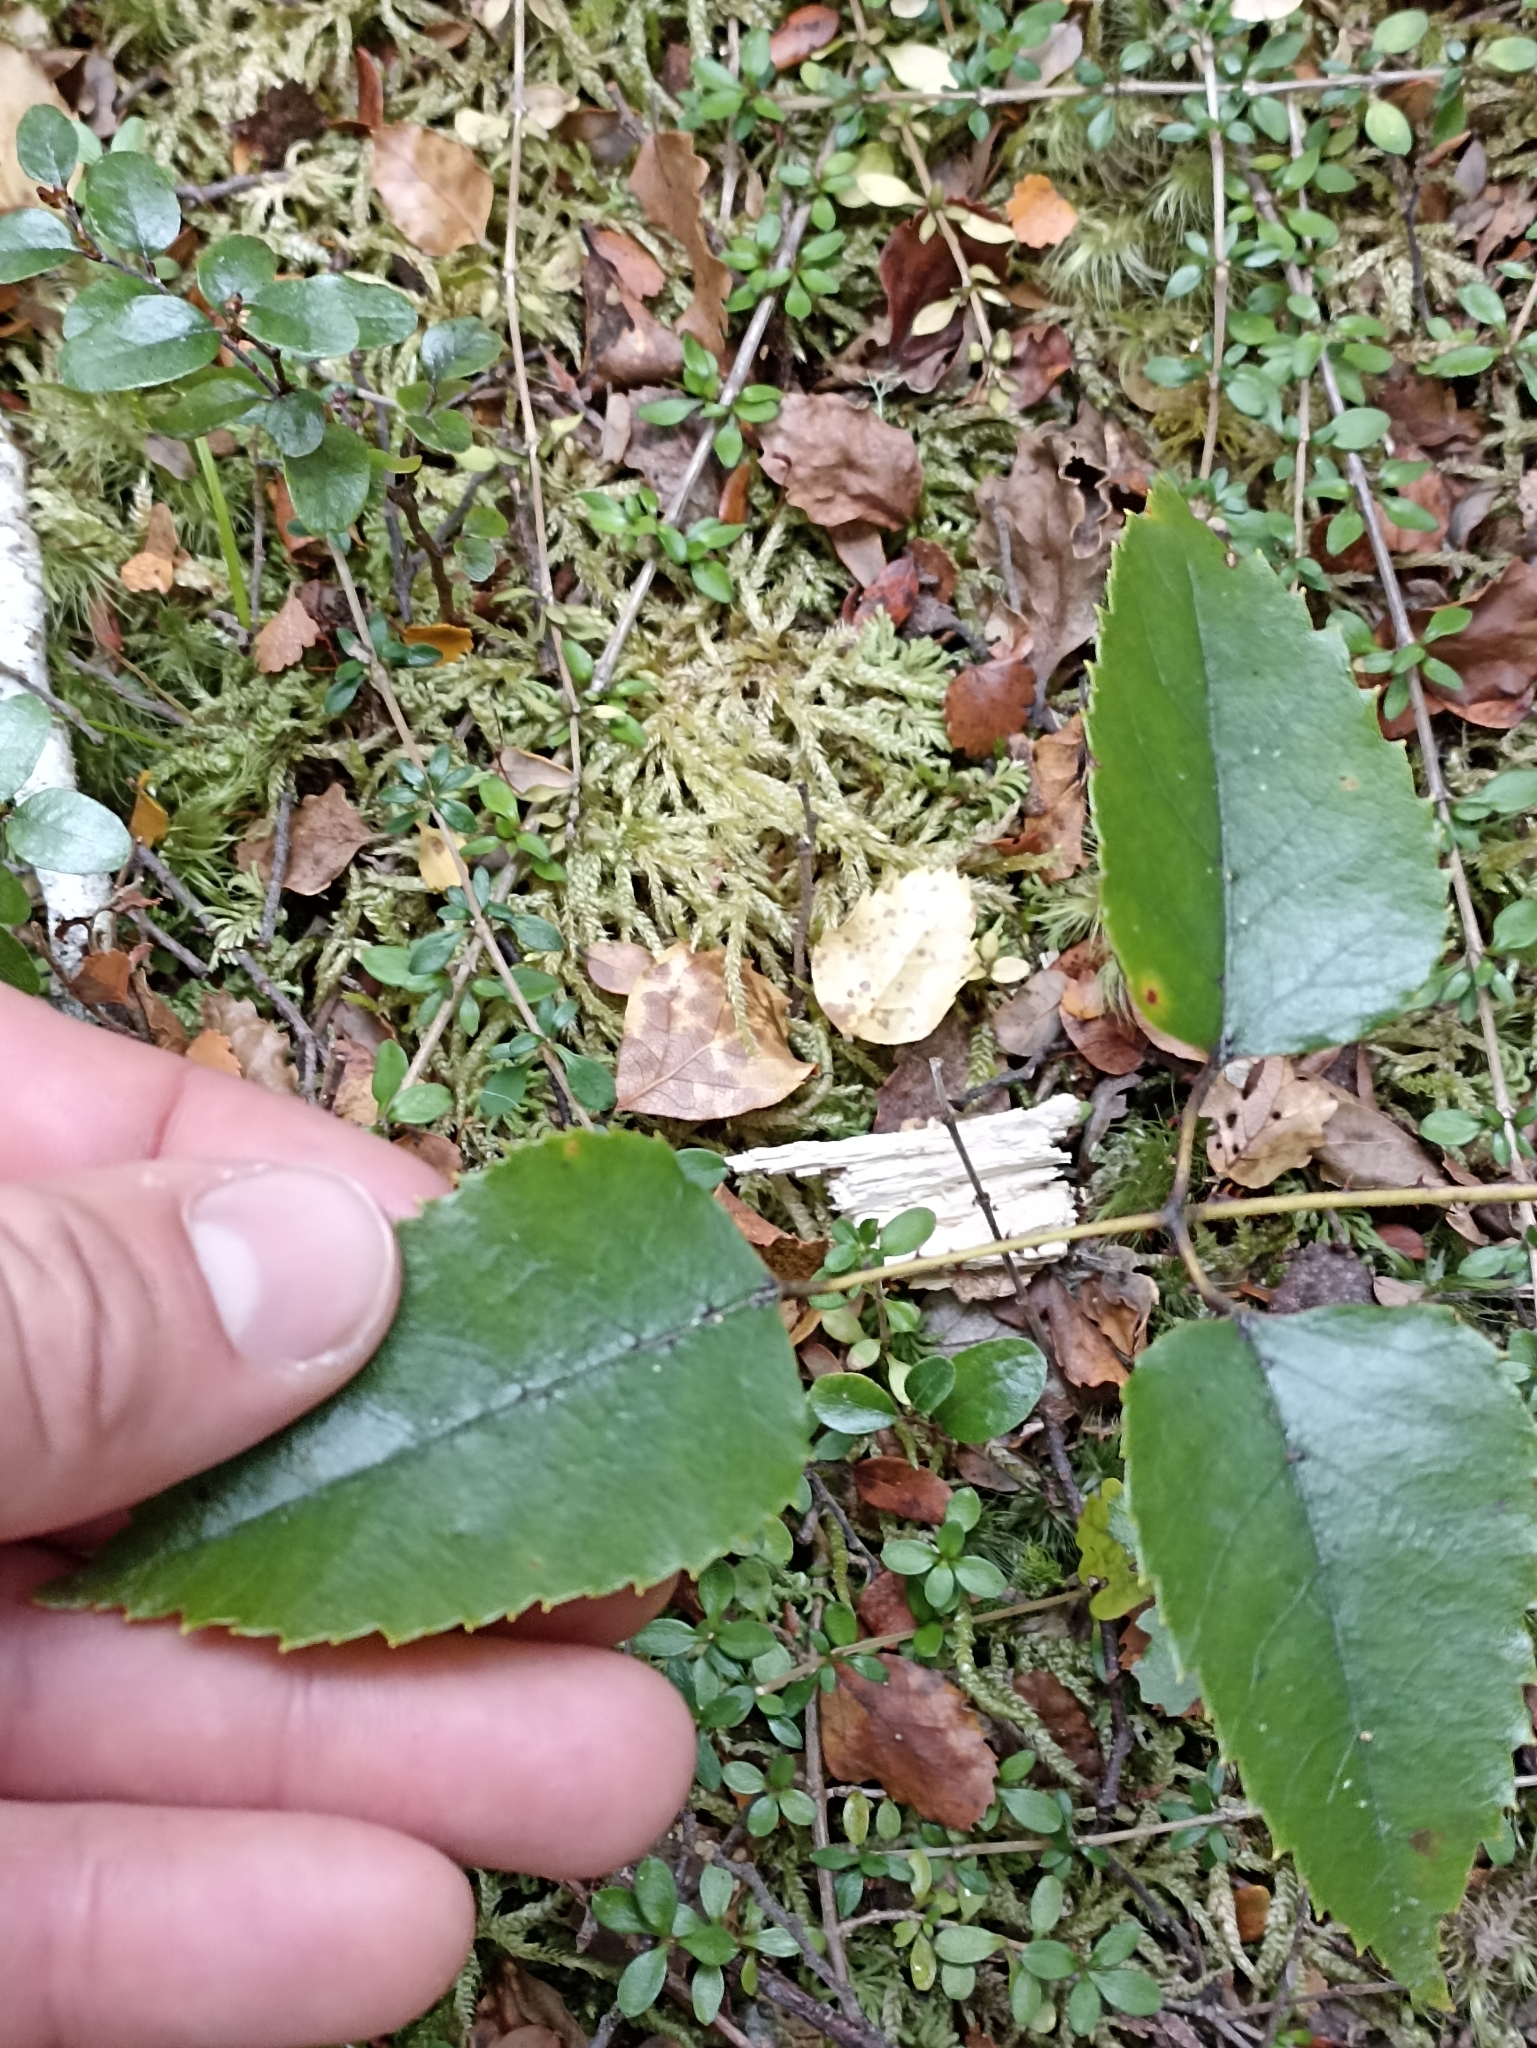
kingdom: Plantae
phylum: Tracheophyta
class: Magnoliopsida
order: Rosales
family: Rosaceae
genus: Rubus
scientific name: Rubus cissoides
